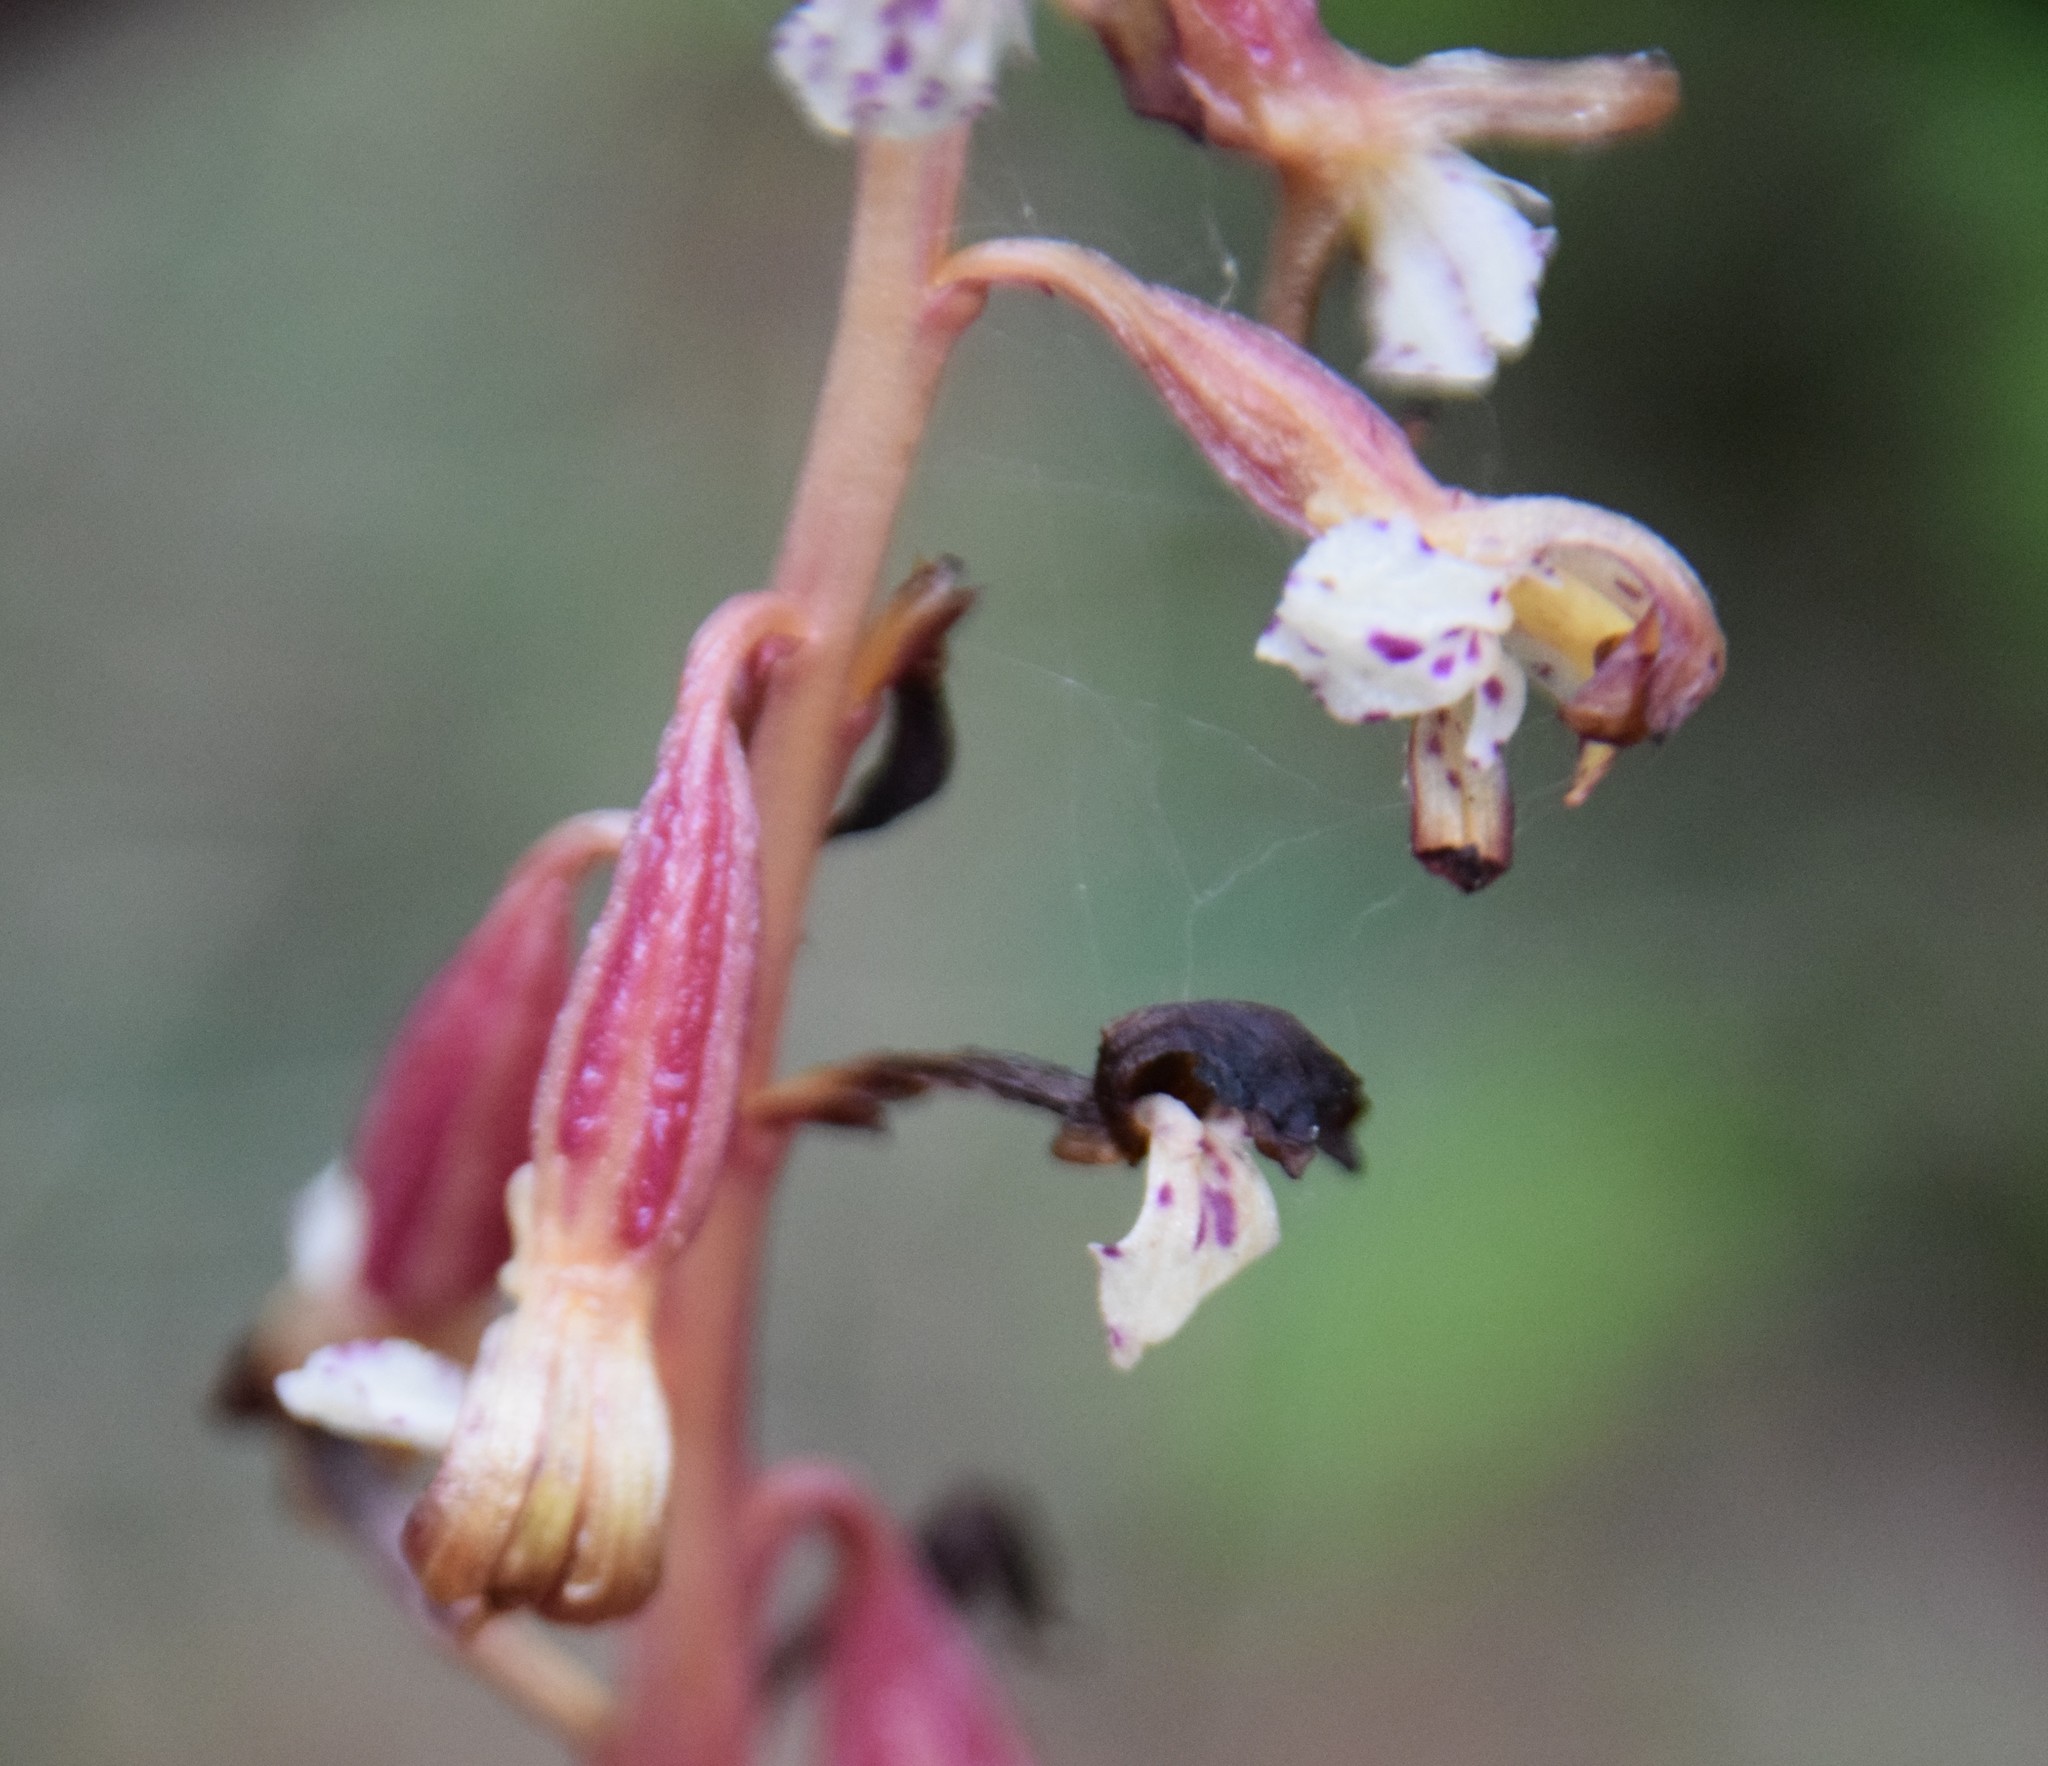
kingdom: Plantae
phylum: Tracheophyta
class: Liliopsida
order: Asparagales
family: Orchidaceae
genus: Corallorhiza
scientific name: Corallorhiza maculata
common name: Spotted coralroot
